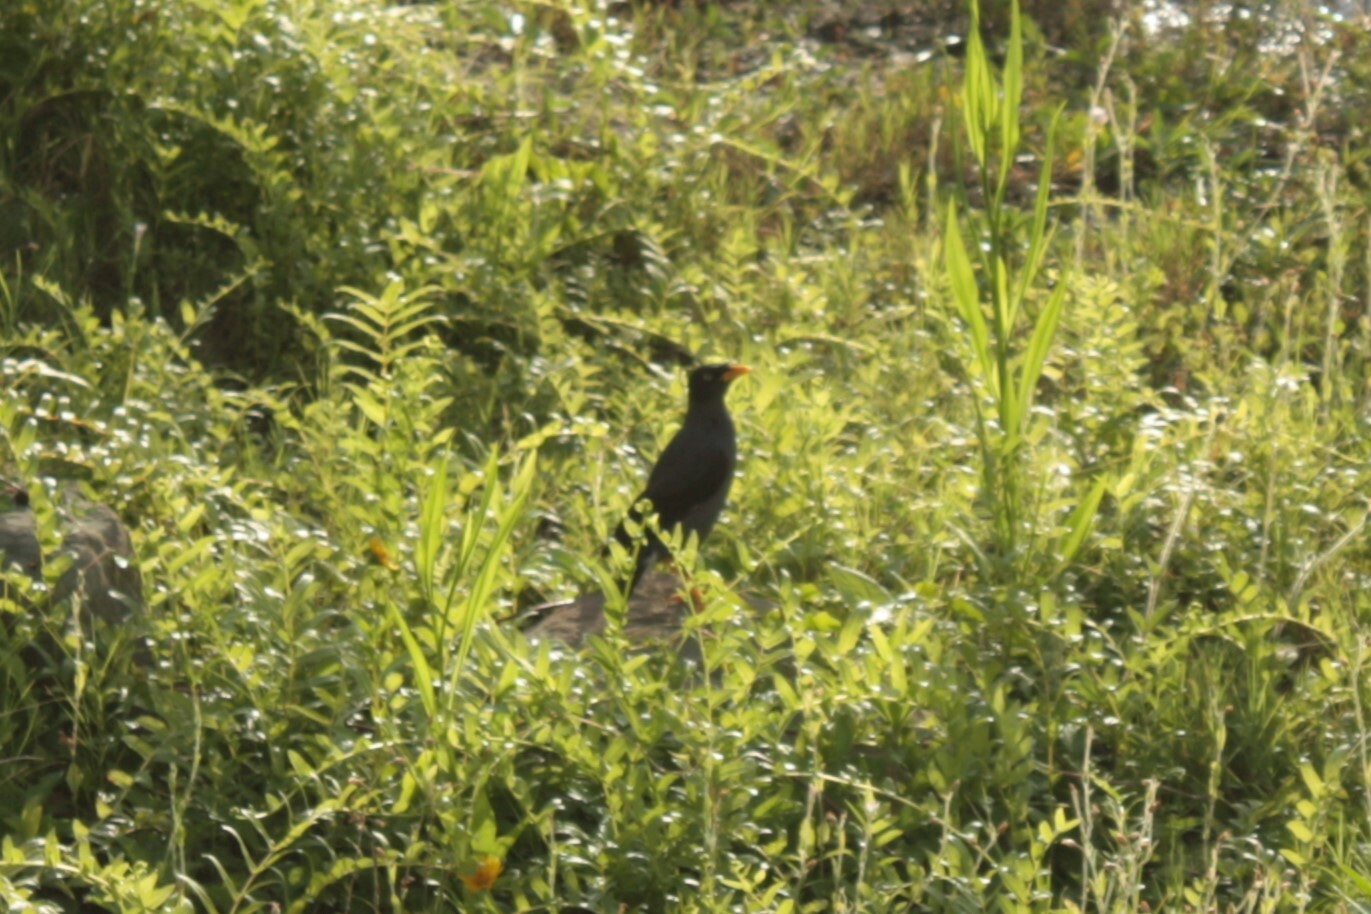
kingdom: Animalia
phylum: Chordata
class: Aves
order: Passeriformes
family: Sturnidae
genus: Acridotheres
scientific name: Acridotheres javanicus
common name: Javan myna
